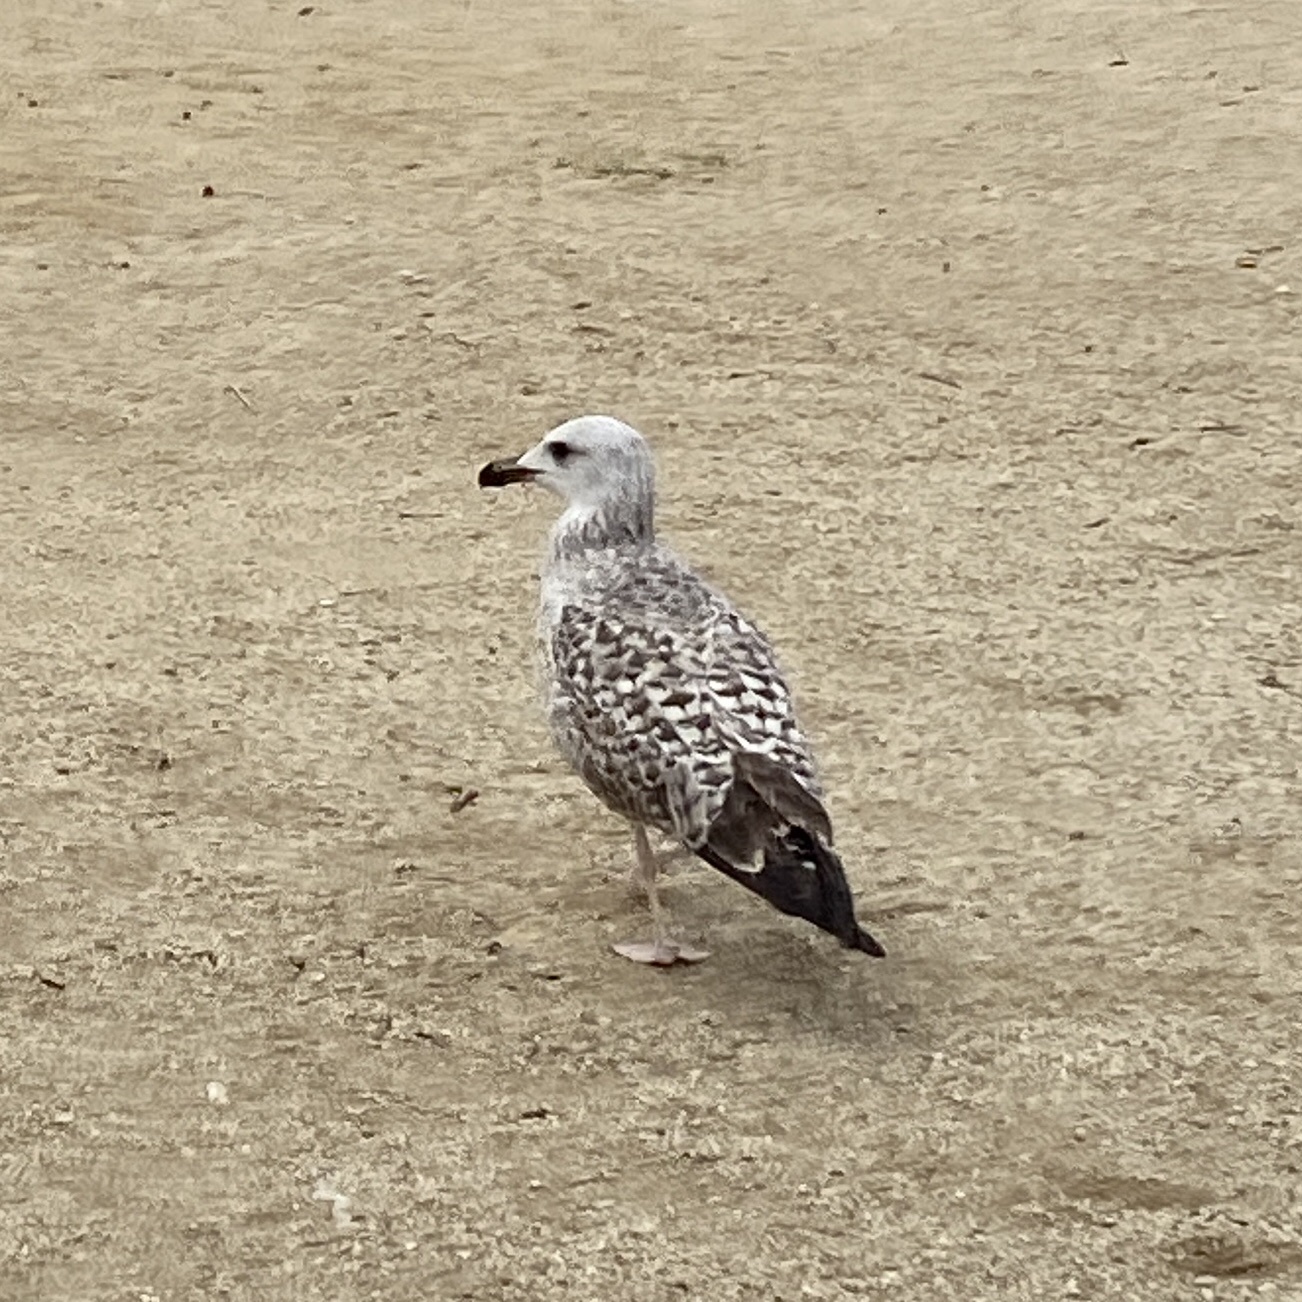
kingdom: Animalia
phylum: Chordata
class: Aves
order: Charadriiformes
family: Laridae
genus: Larus
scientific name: Larus michahellis
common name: Yellow-legged gull
